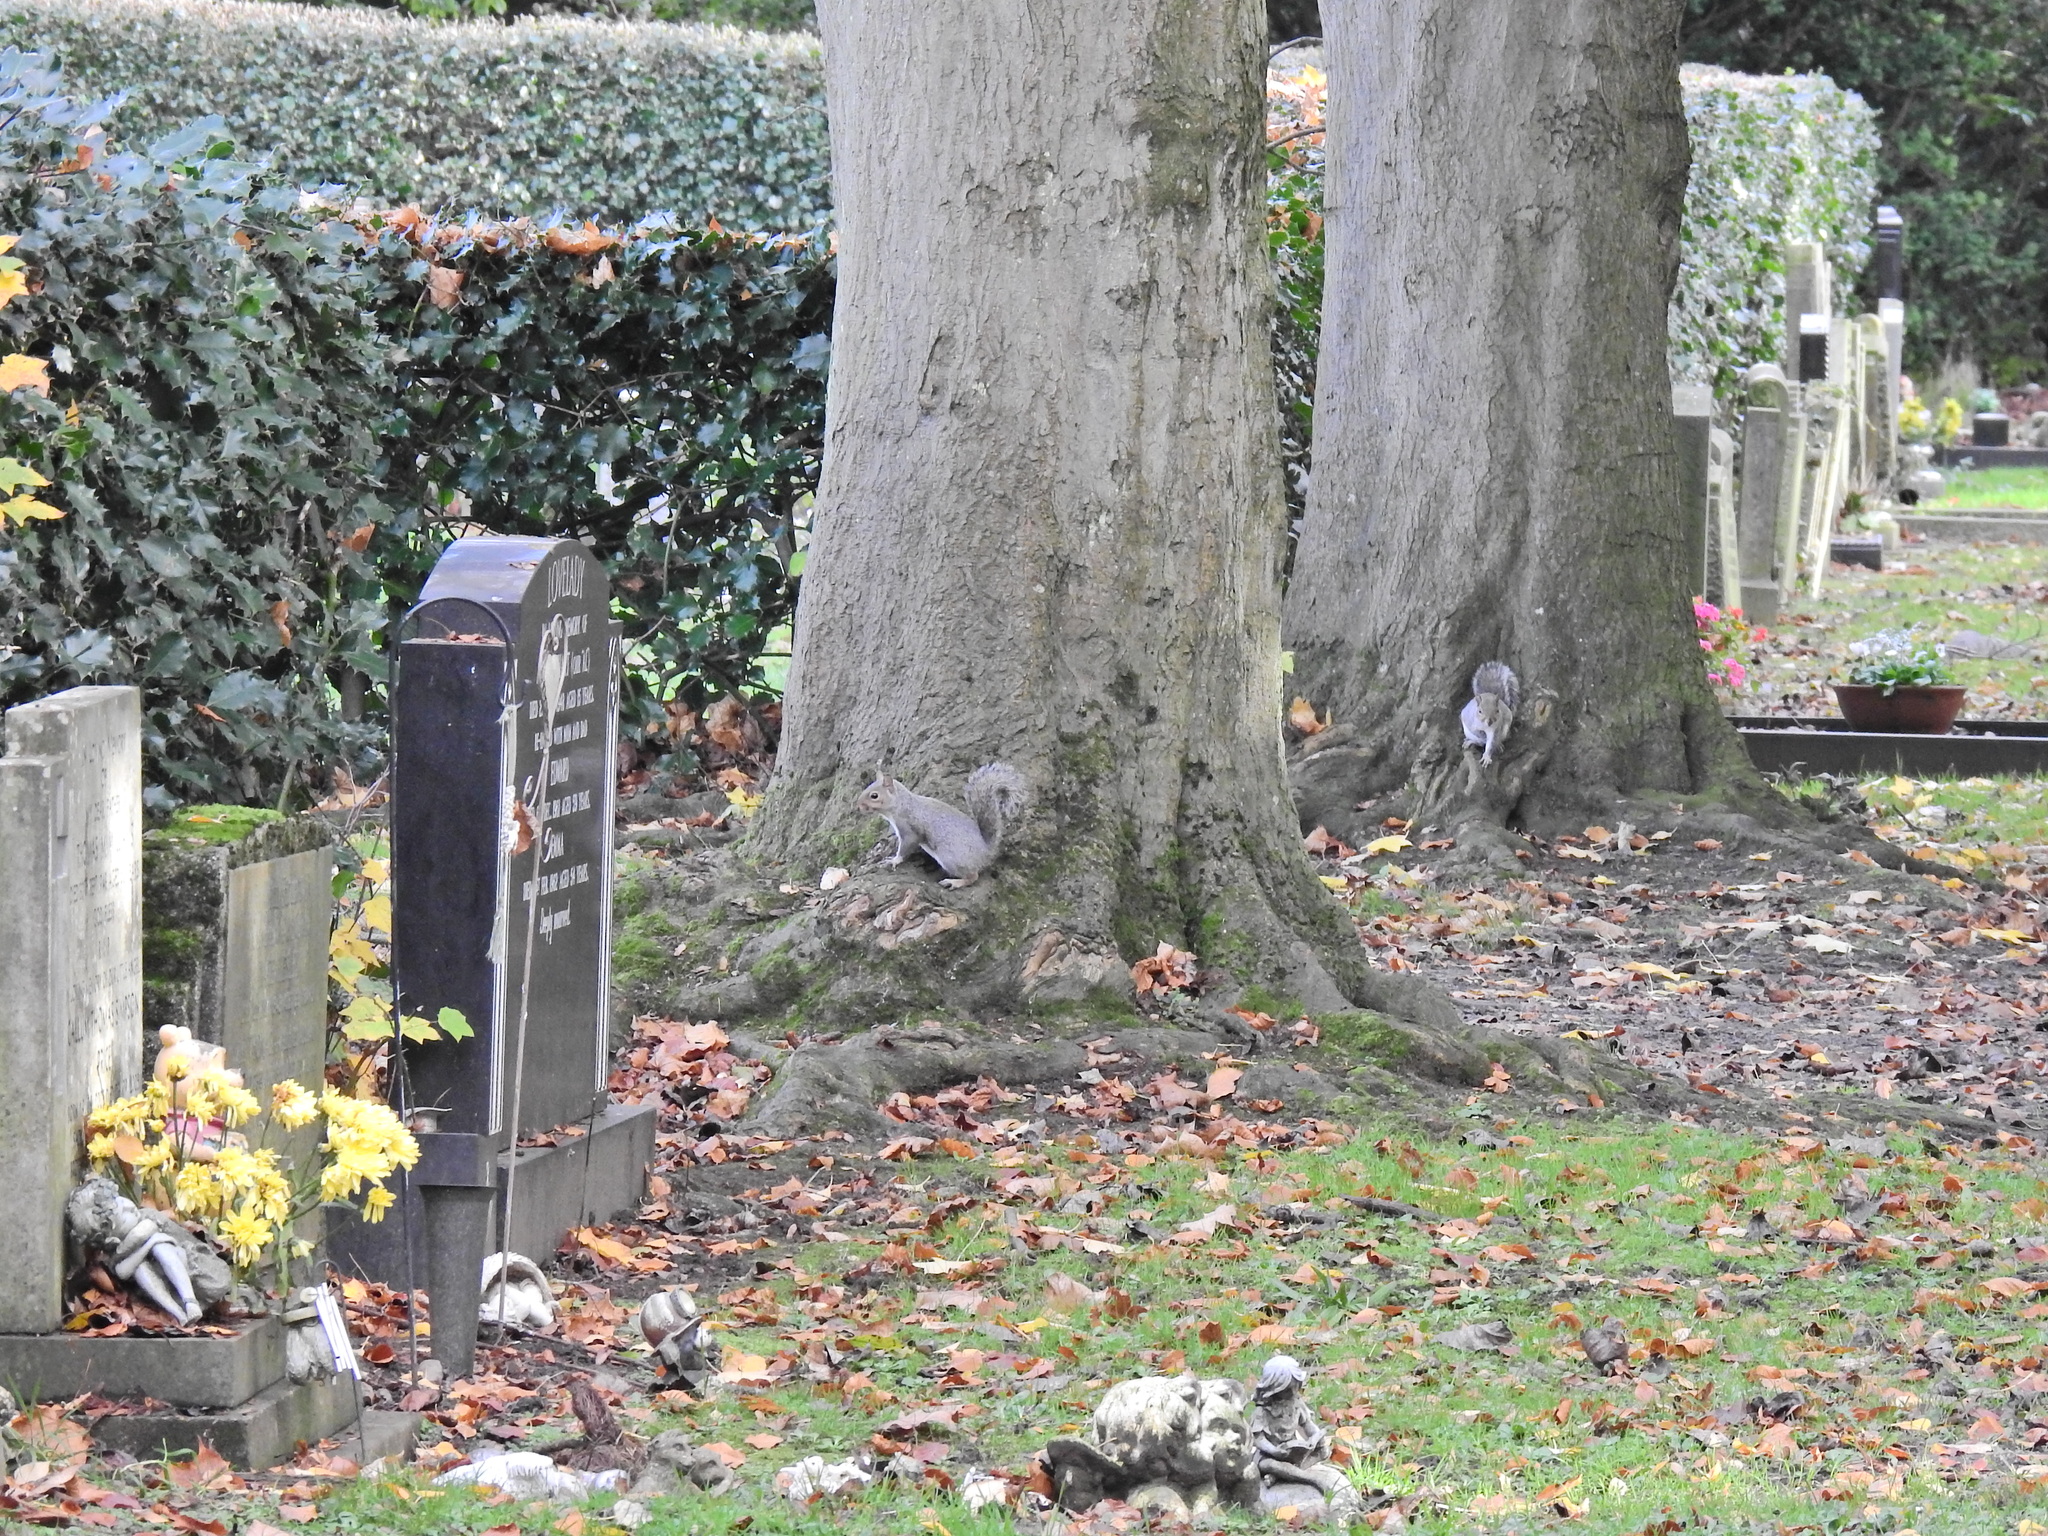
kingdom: Animalia
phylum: Chordata
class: Mammalia
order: Rodentia
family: Sciuridae
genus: Sciurus
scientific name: Sciurus carolinensis
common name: Eastern gray squirrel
